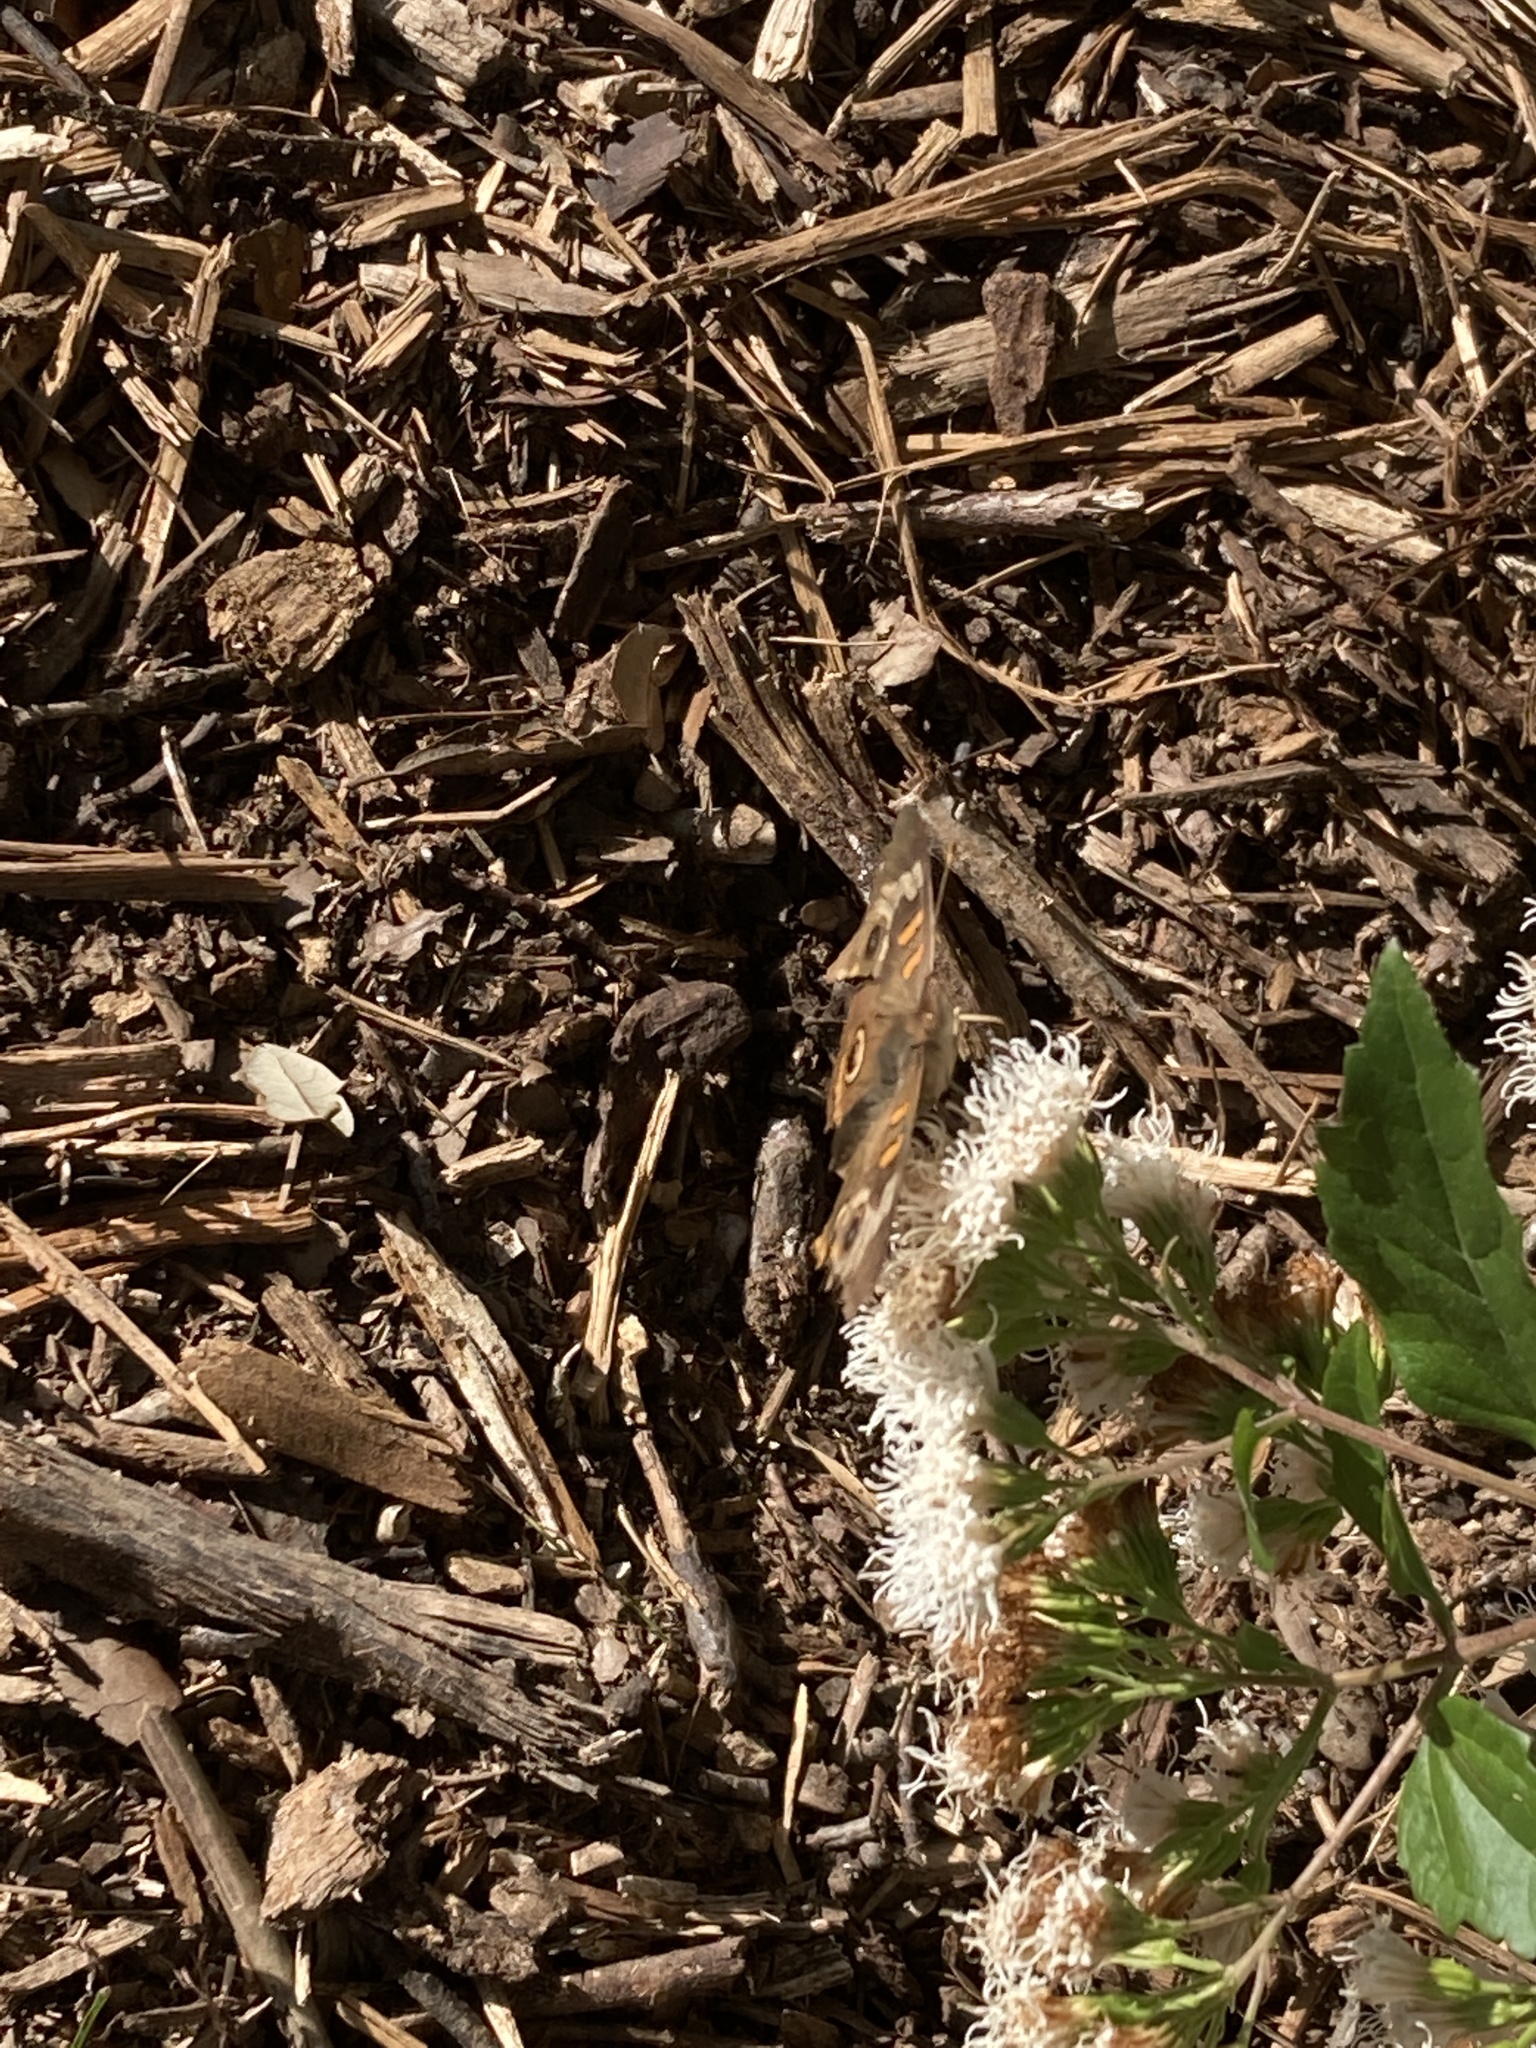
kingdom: Animalia
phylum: Arthropoda
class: Insecta
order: Lepidoptera
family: Nymphalidae
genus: Junonia
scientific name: Junonia coenia
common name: Common buckeye
